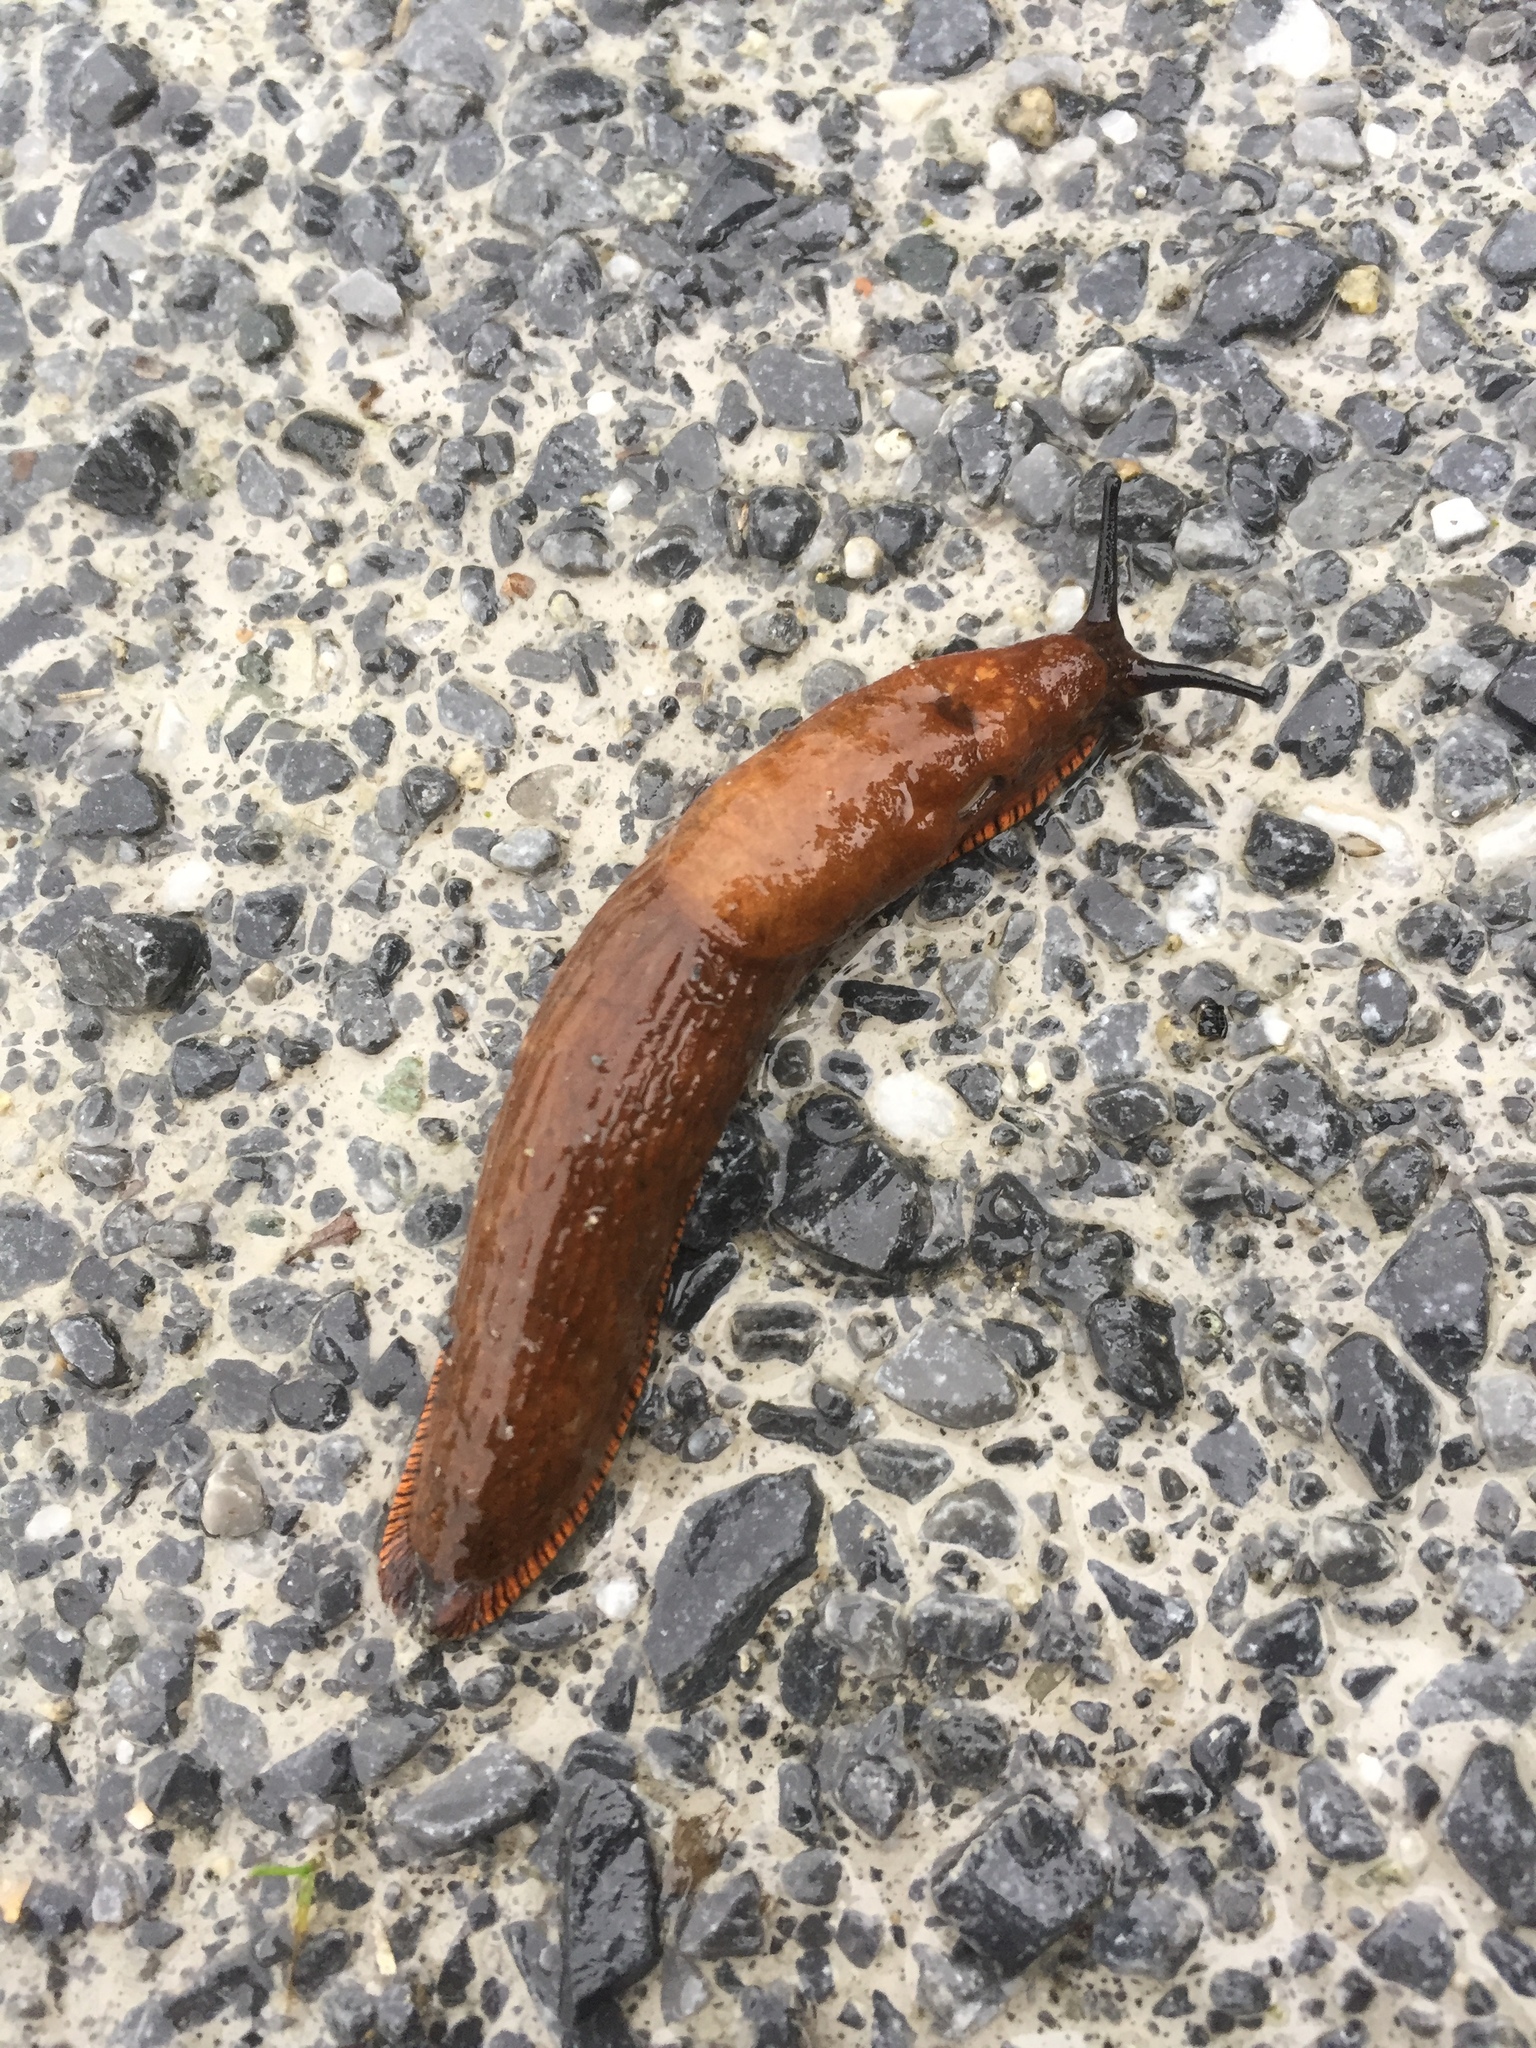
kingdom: Animalia
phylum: Mollusca
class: Gastropoda
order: Stylommatophora
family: Arionidae
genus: Arion
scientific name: Arion rufus
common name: Chocolate arion
